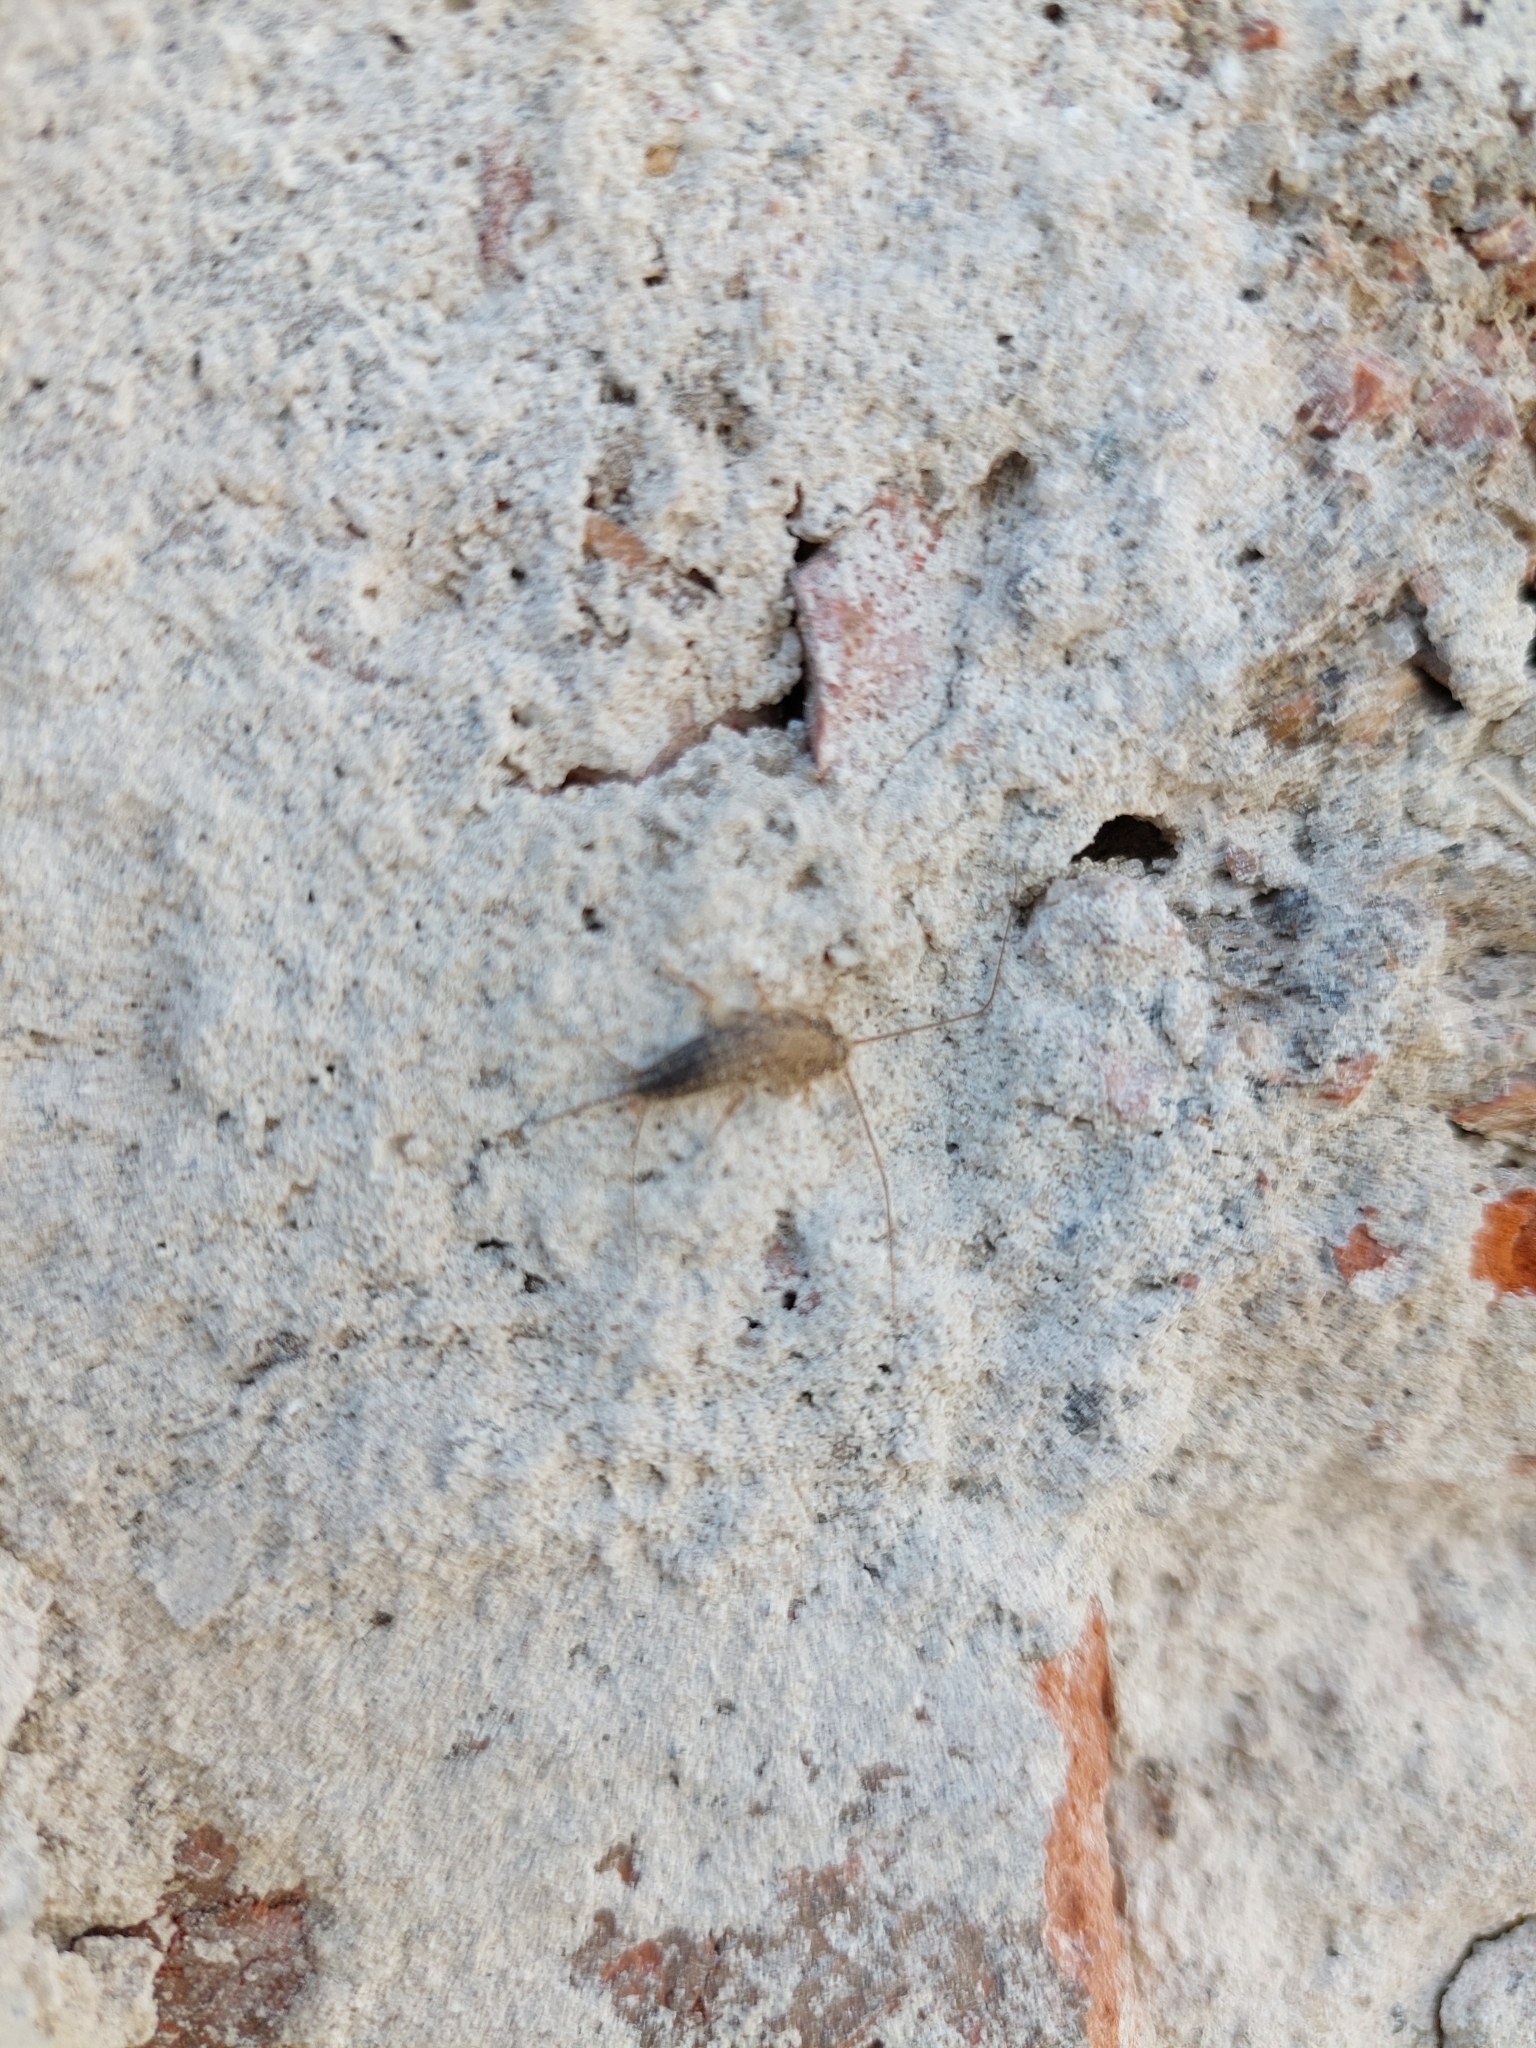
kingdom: Animalia
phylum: Arthropoda
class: Insecta
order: Zygentoma
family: Lepismatidae
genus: Ctenolepisma
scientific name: Ctenolepisma longicaudatum
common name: Silverfish
